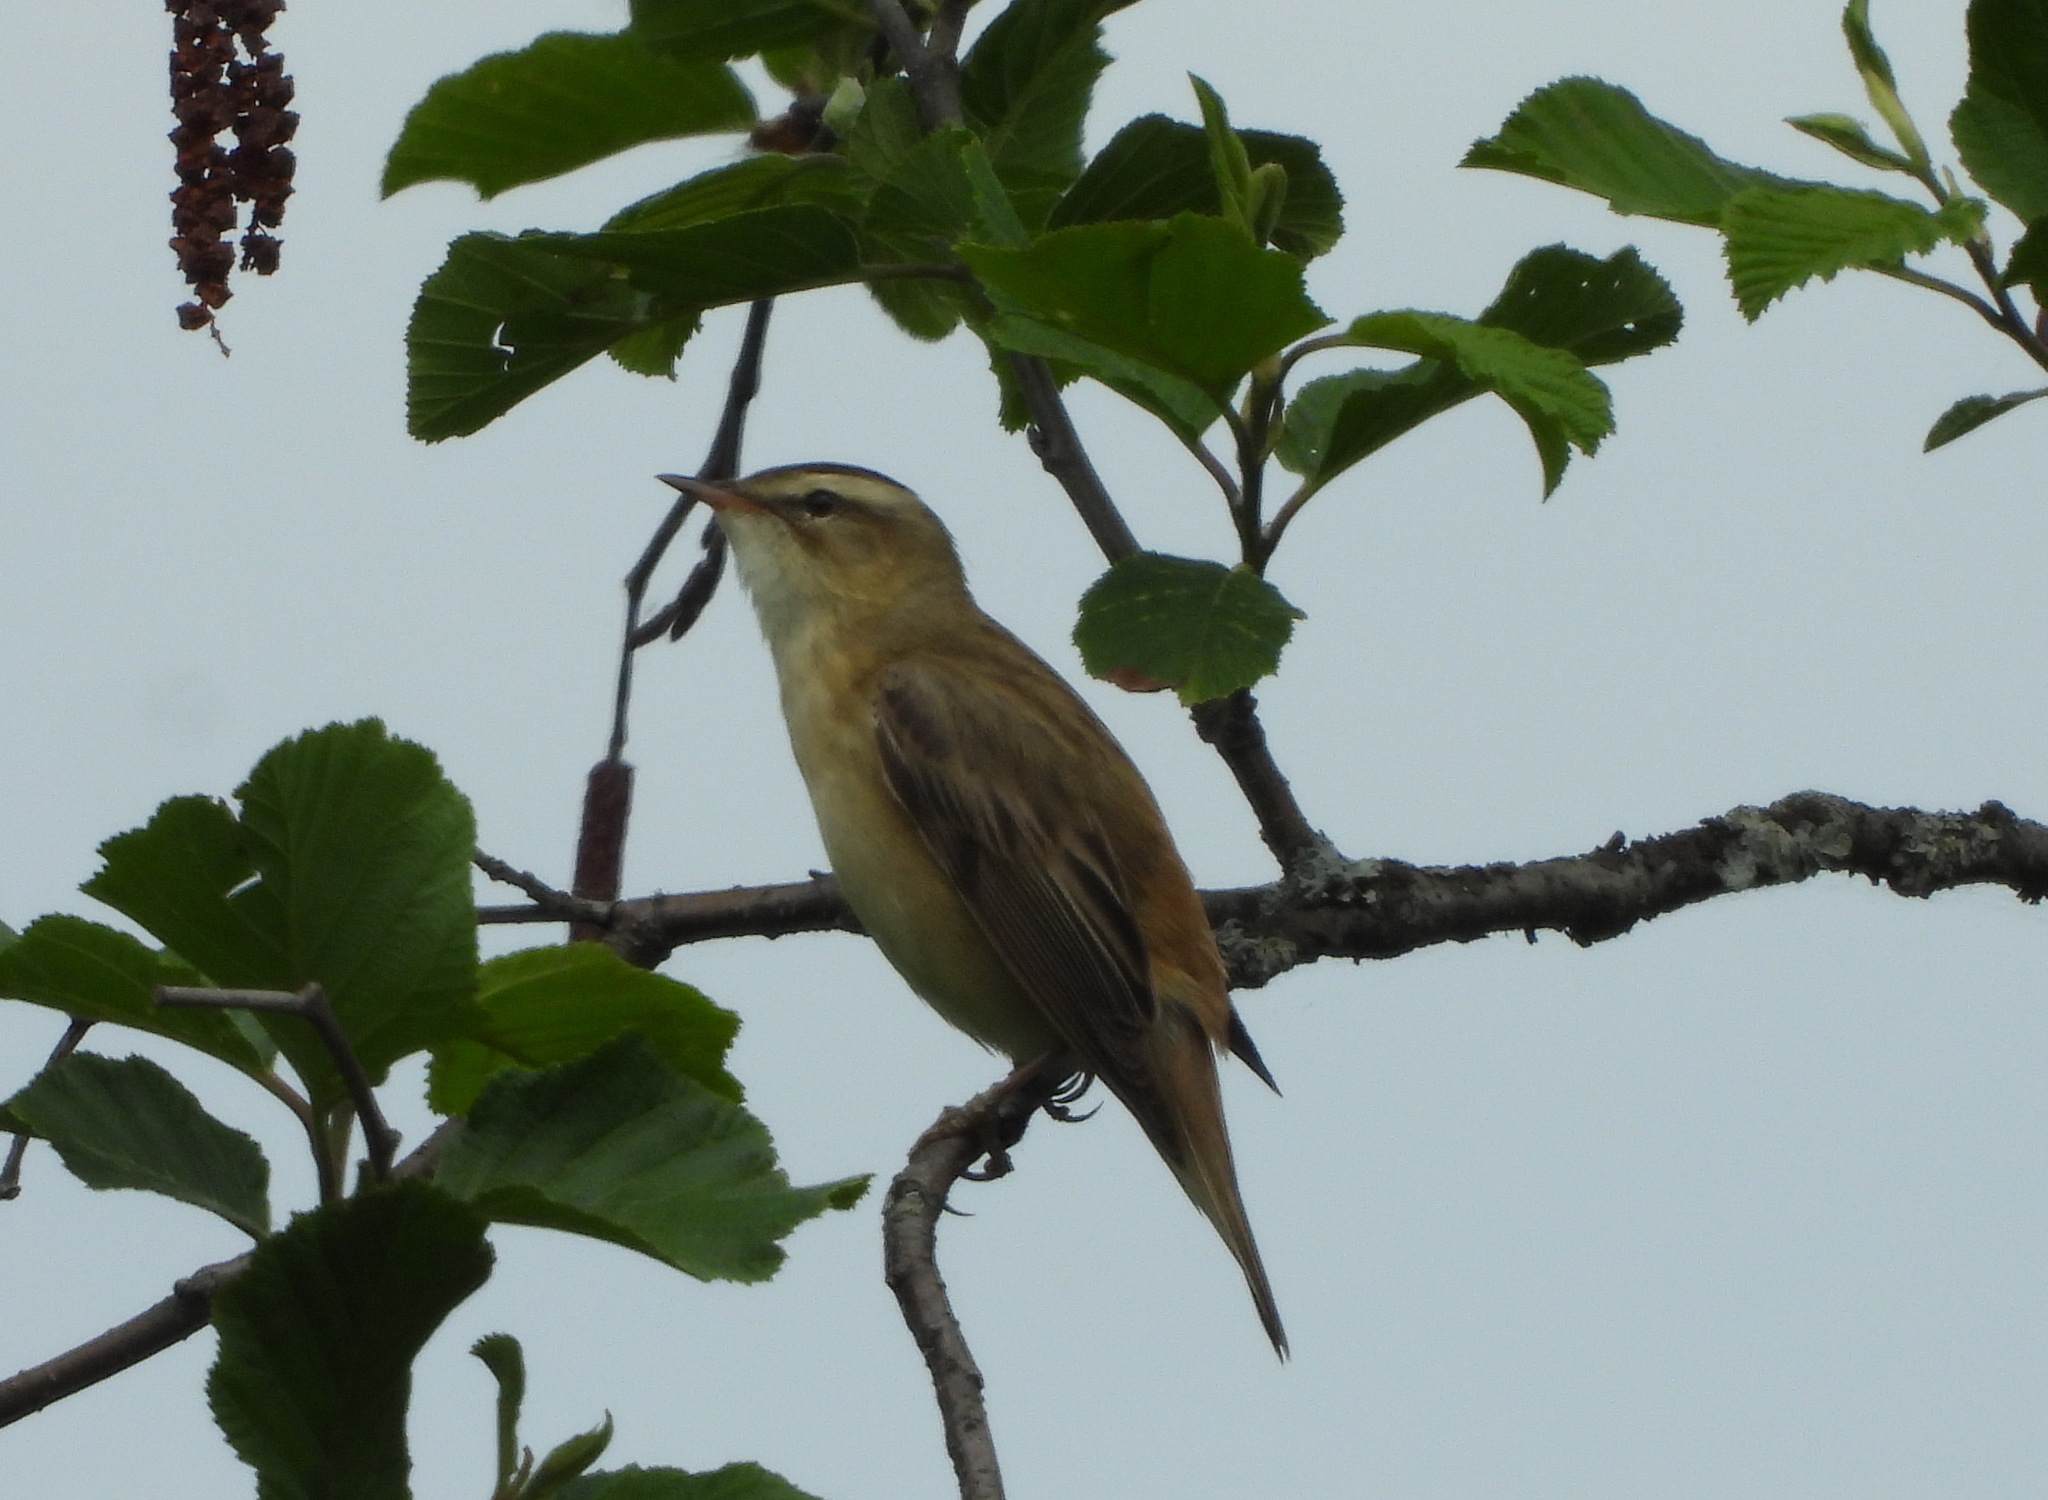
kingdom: Animalia
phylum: Chordata
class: Aves
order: Passeriformes
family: Acrocephalidae
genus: Acrocephalus
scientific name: Acrocephalus schoenobaenus
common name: Sedge warbler
